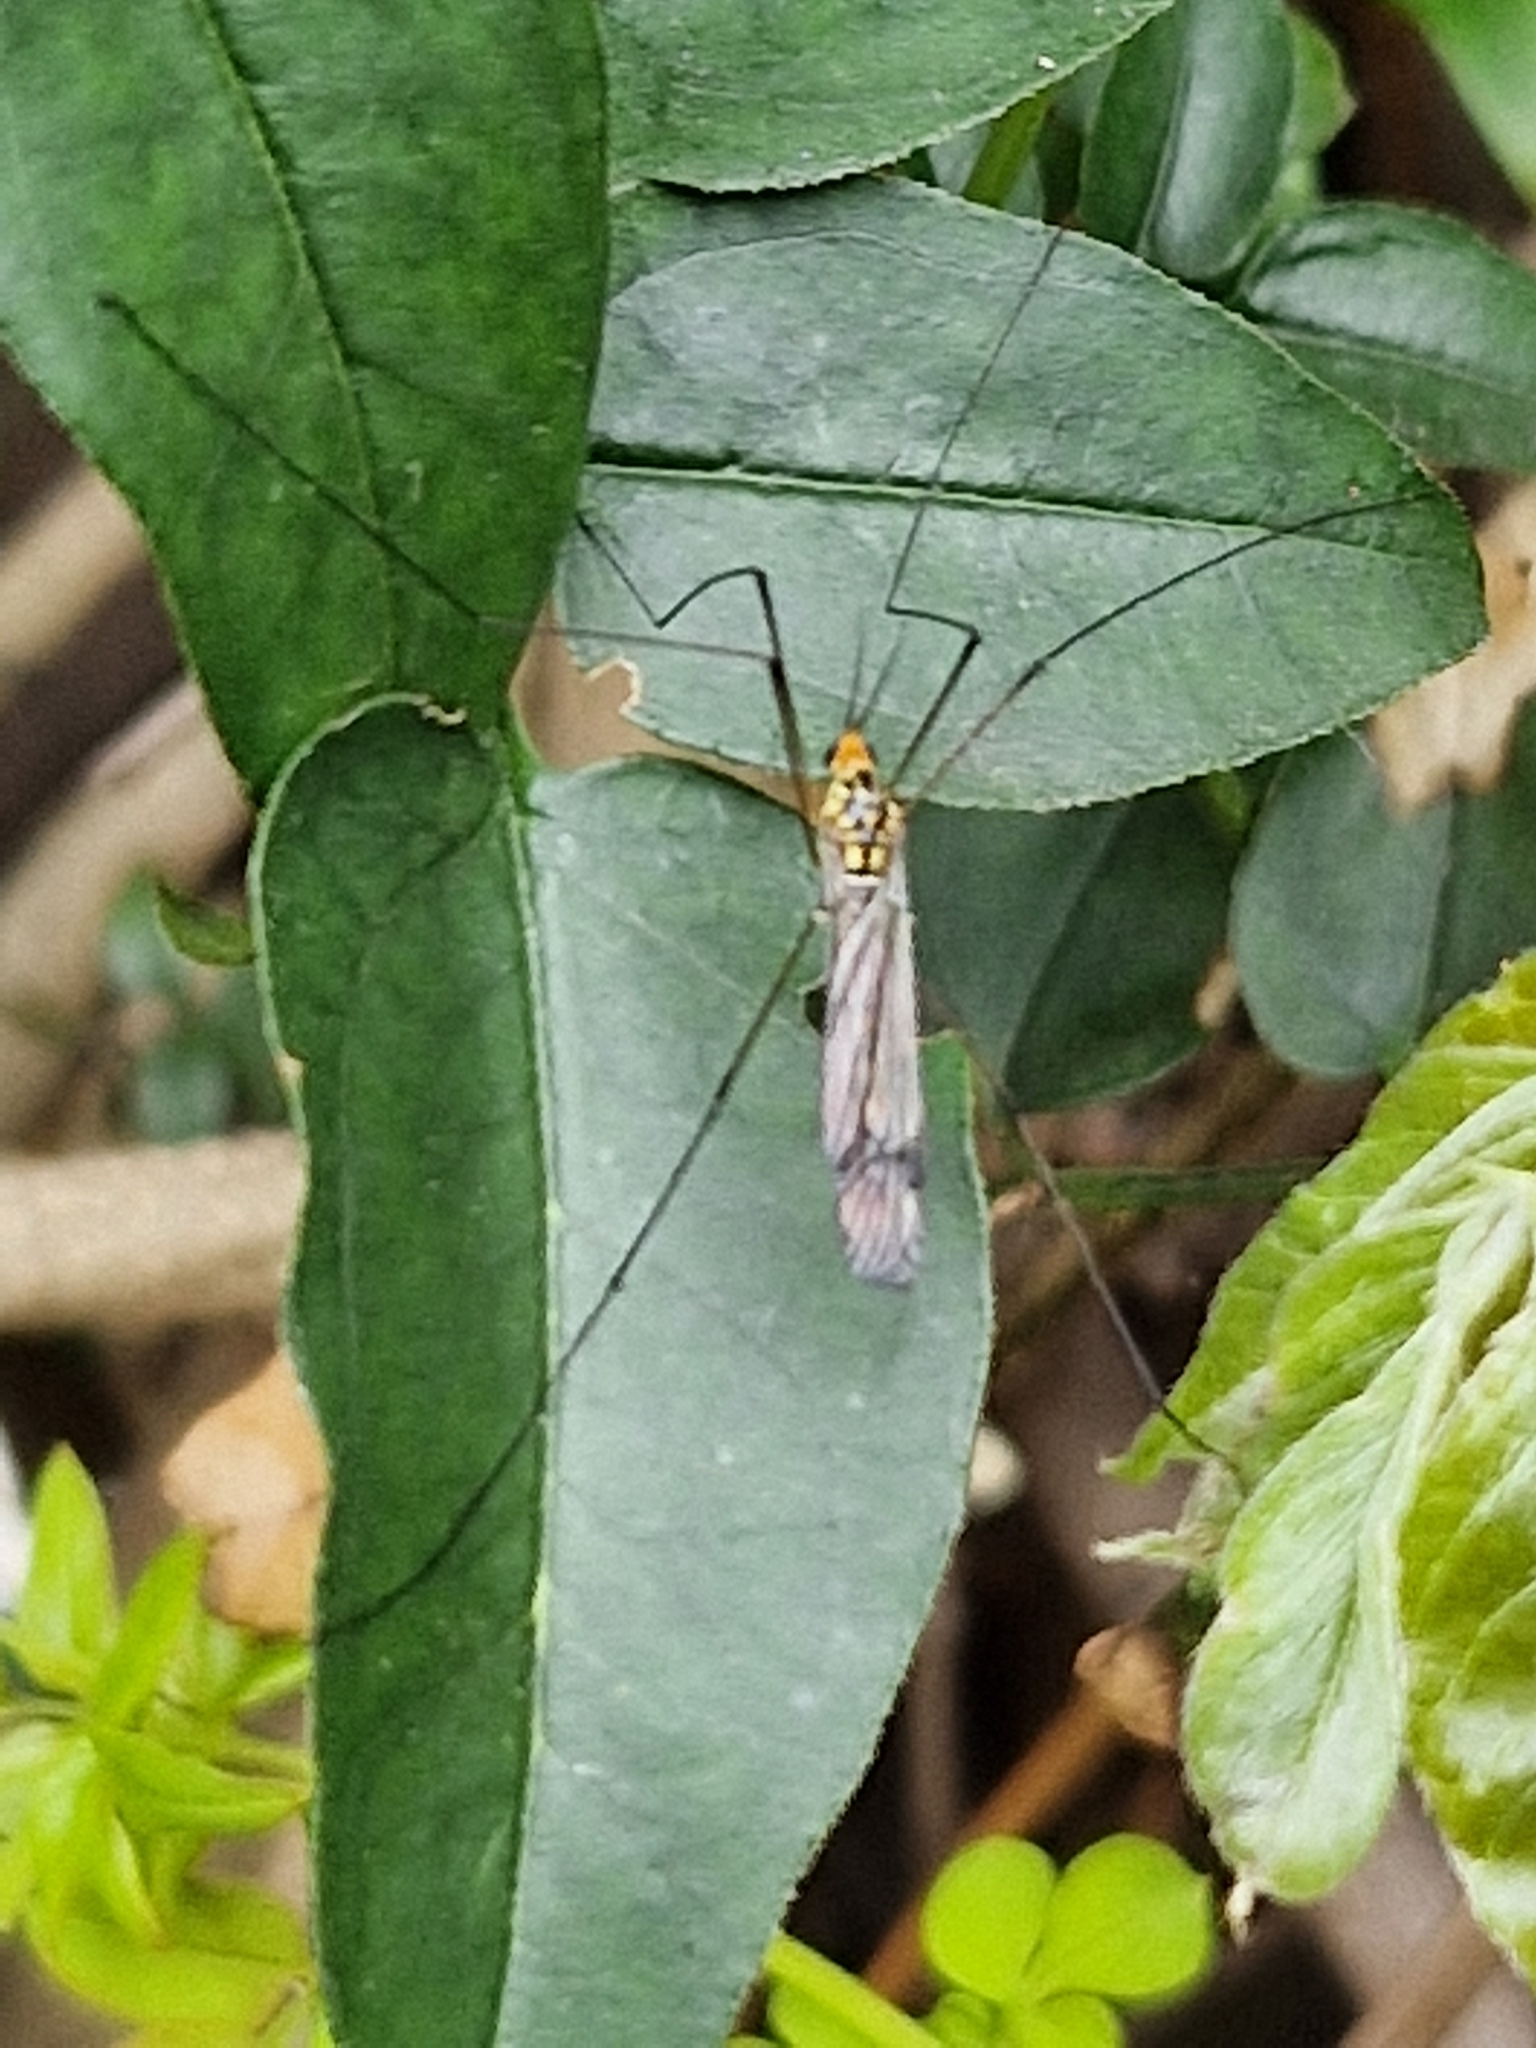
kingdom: Animalia
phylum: Arthropoda
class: Insecta
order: Diptera
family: Tipulidae
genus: Nephrotoma
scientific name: Nephrotoma flavipalpis
